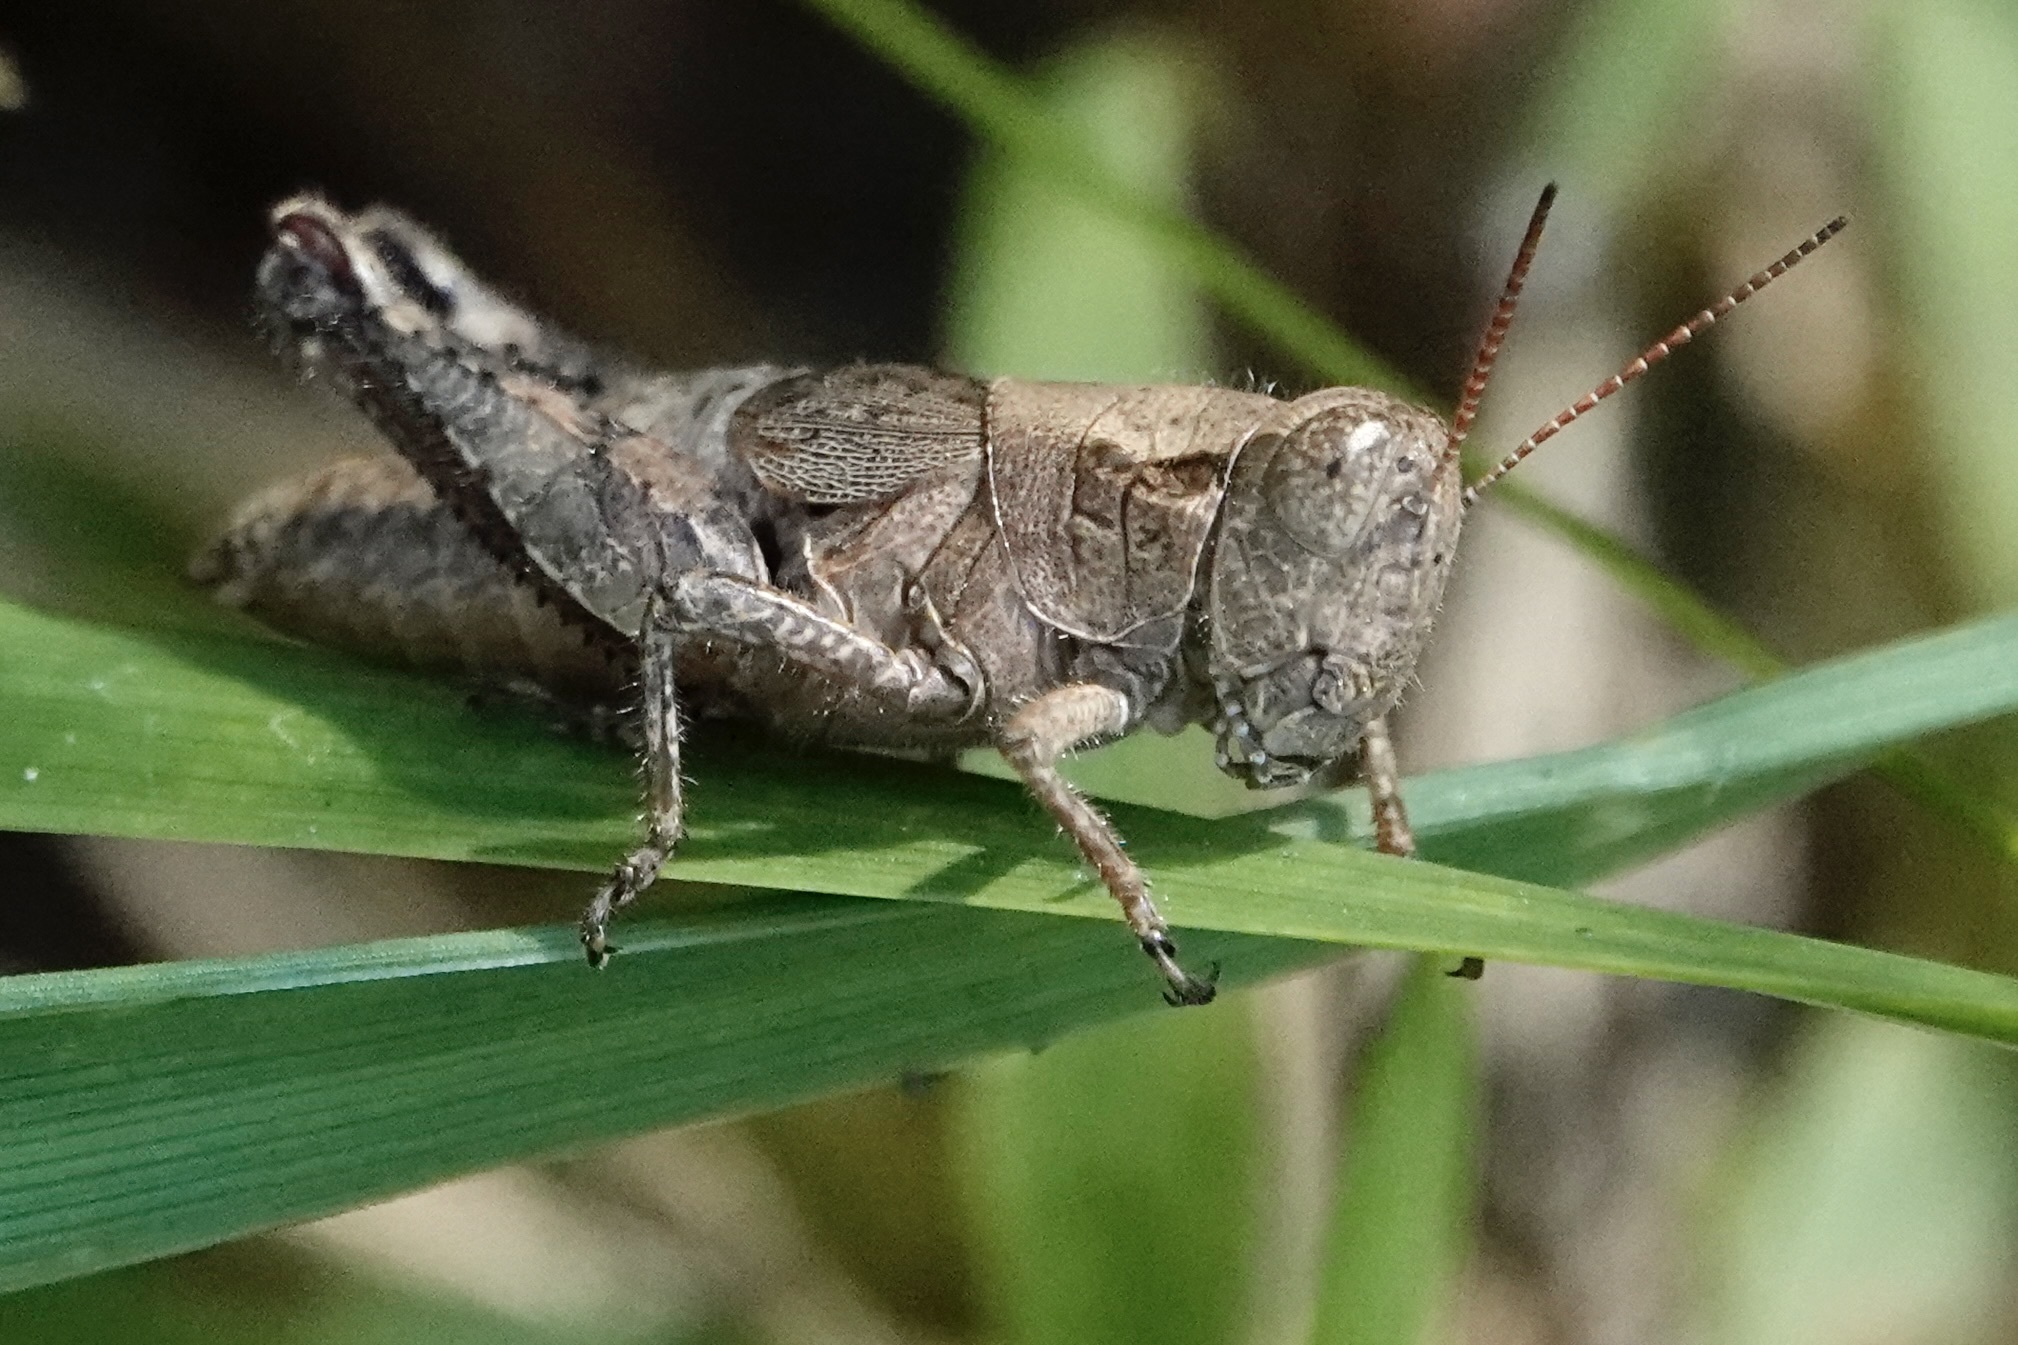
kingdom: Animalia
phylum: Arthropoda
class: Insecta
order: Orthoptera
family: Acrididae
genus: Melanoplus
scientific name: Melanoplus scudderi
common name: Scudder's short-winged locust
